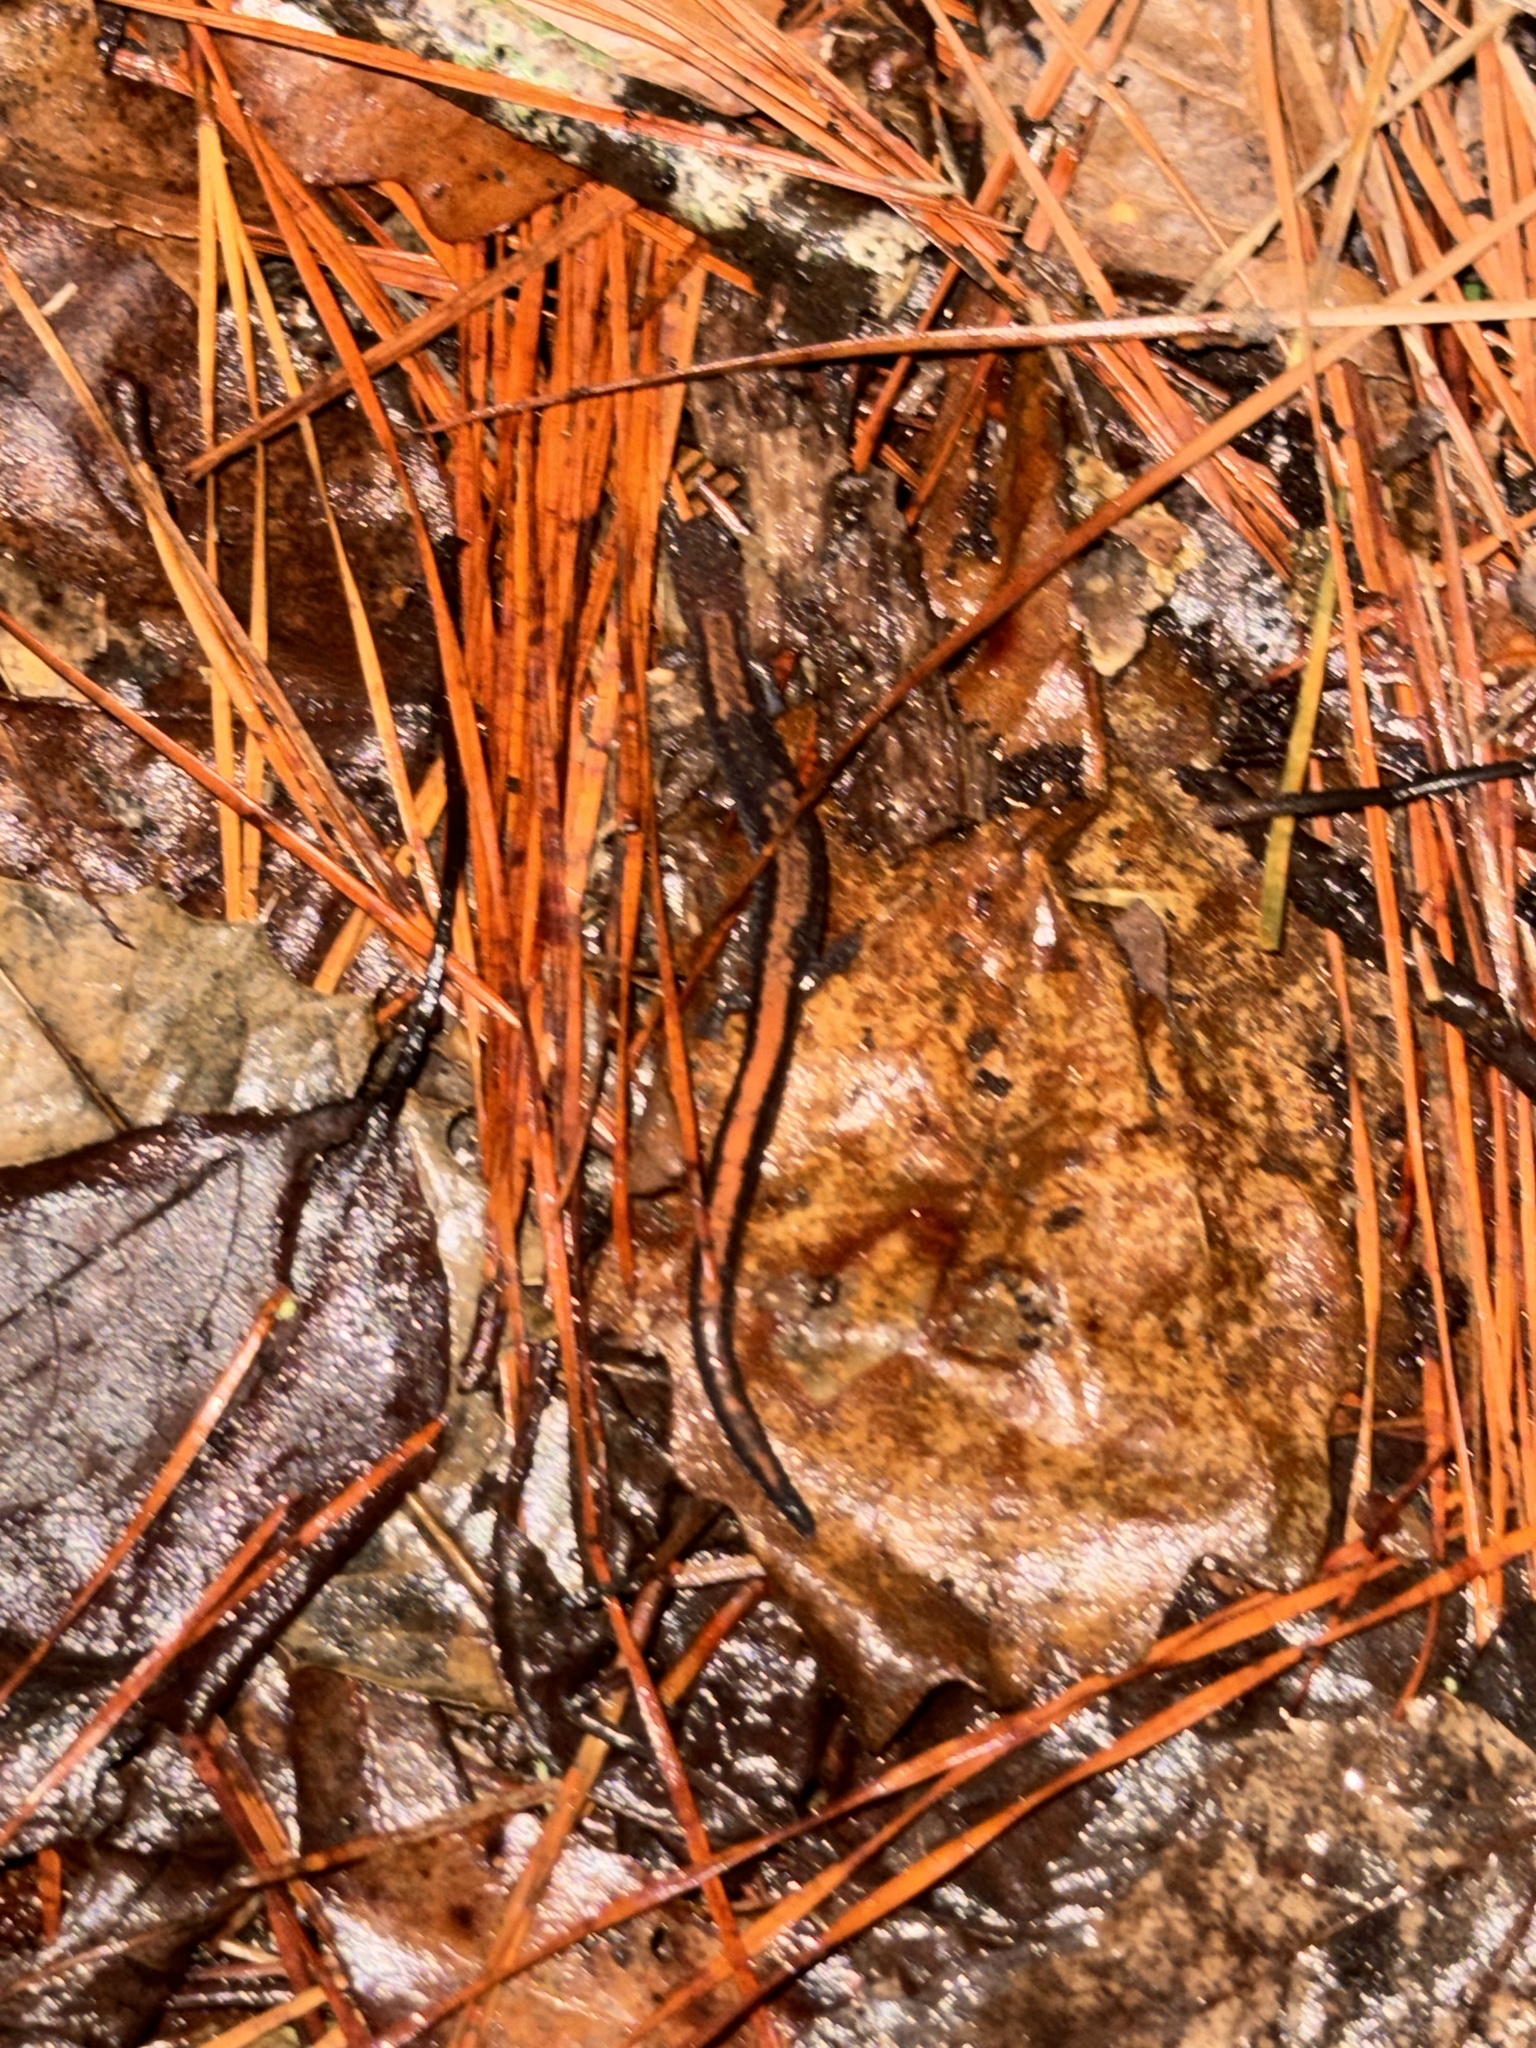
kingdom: Animalia
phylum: Chordata
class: Amphibia
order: Caudata
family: Plethodontidae
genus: Plethodon
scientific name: Plethodon cinereus
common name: Redback salamander
